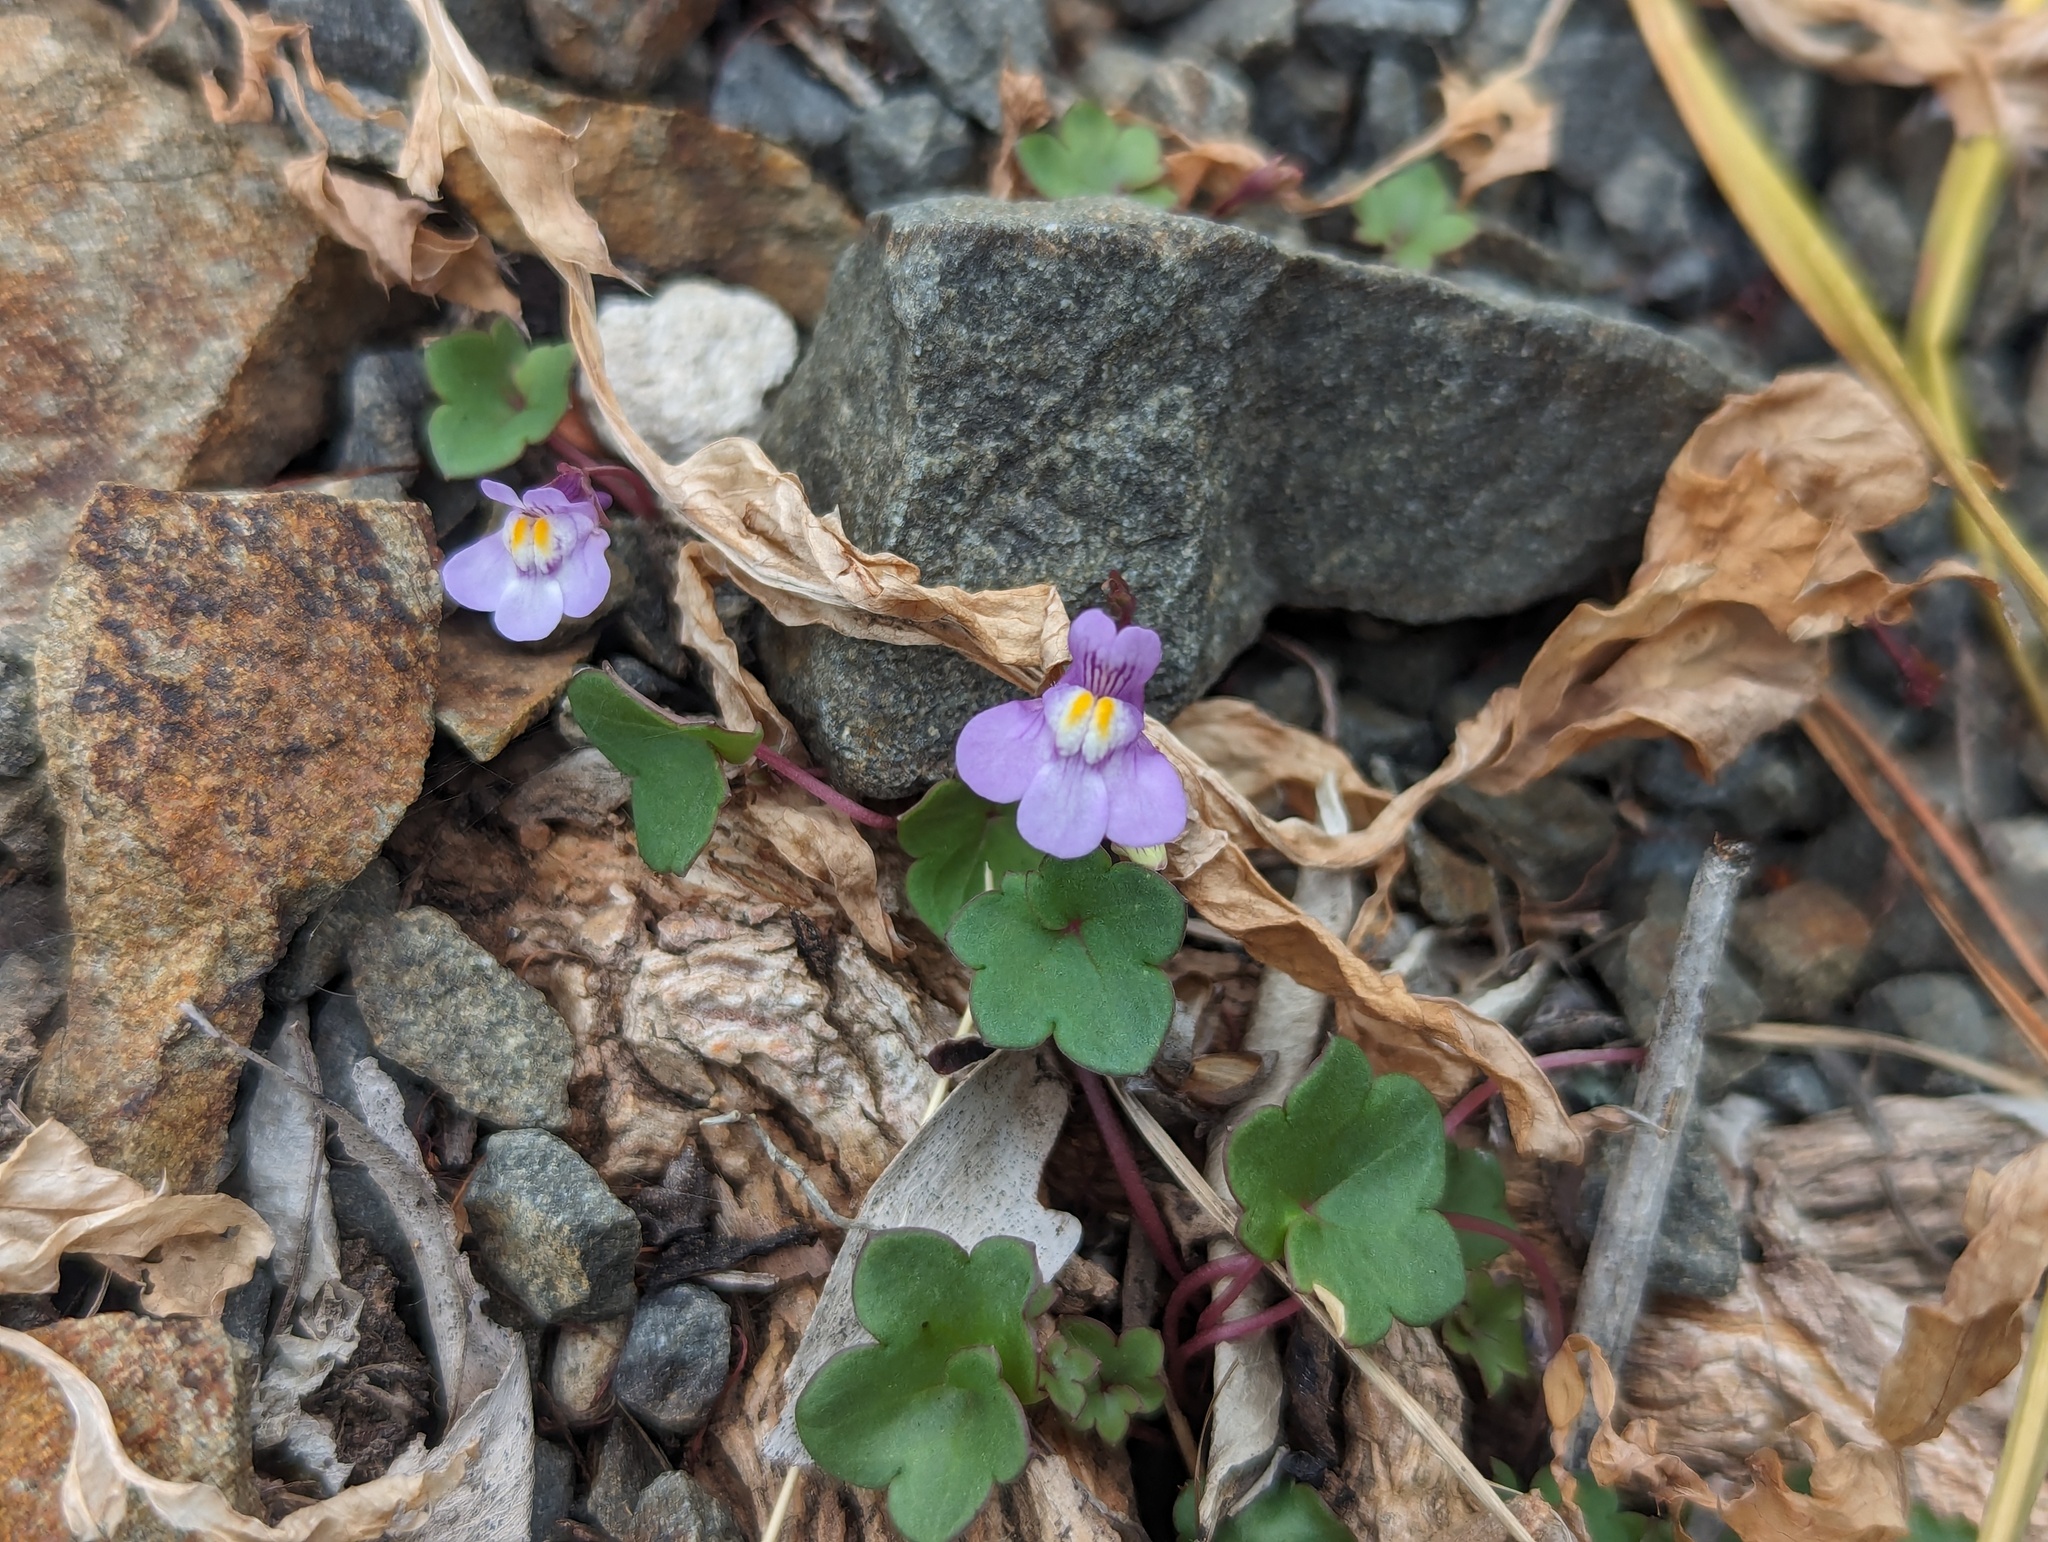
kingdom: Plantae
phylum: Tracheophyta
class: Magnoliopsida
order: Lamiales
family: Plantaginaceae
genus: Cymbalaria
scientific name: Cymbalaria muralis
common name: Ivy-leaved toadflax
